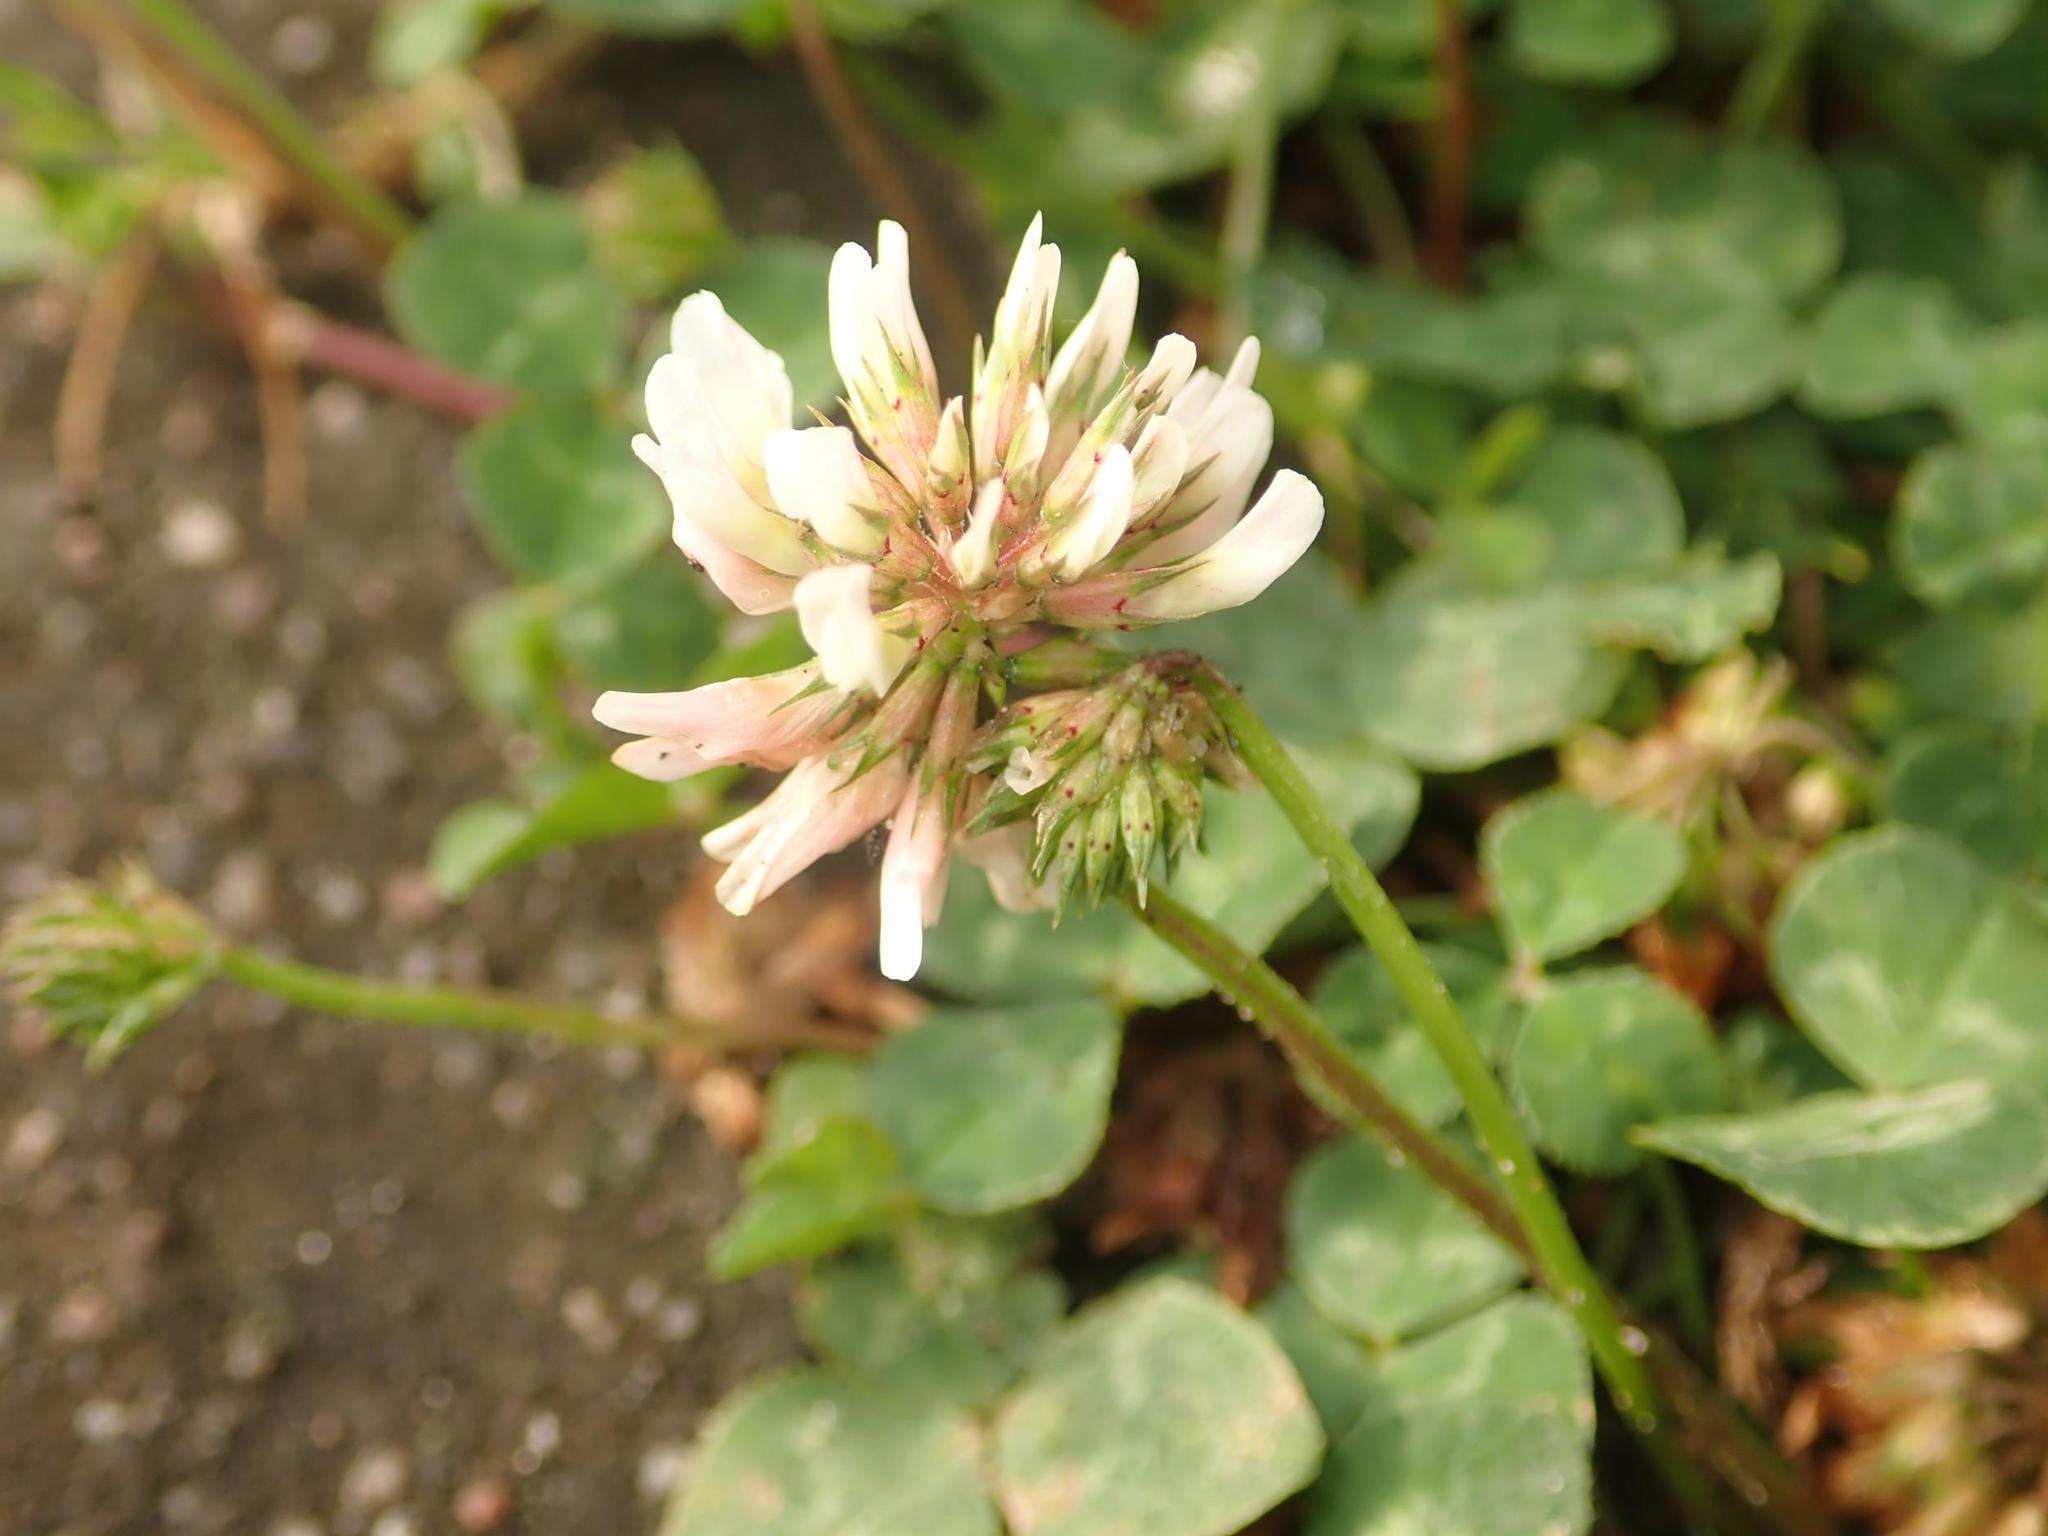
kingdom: Plantae
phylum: Tracheophyta
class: Magnoliopsida
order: Fabales
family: Fabaceae
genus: Trifolium
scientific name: Trifolium repens
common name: White clover
